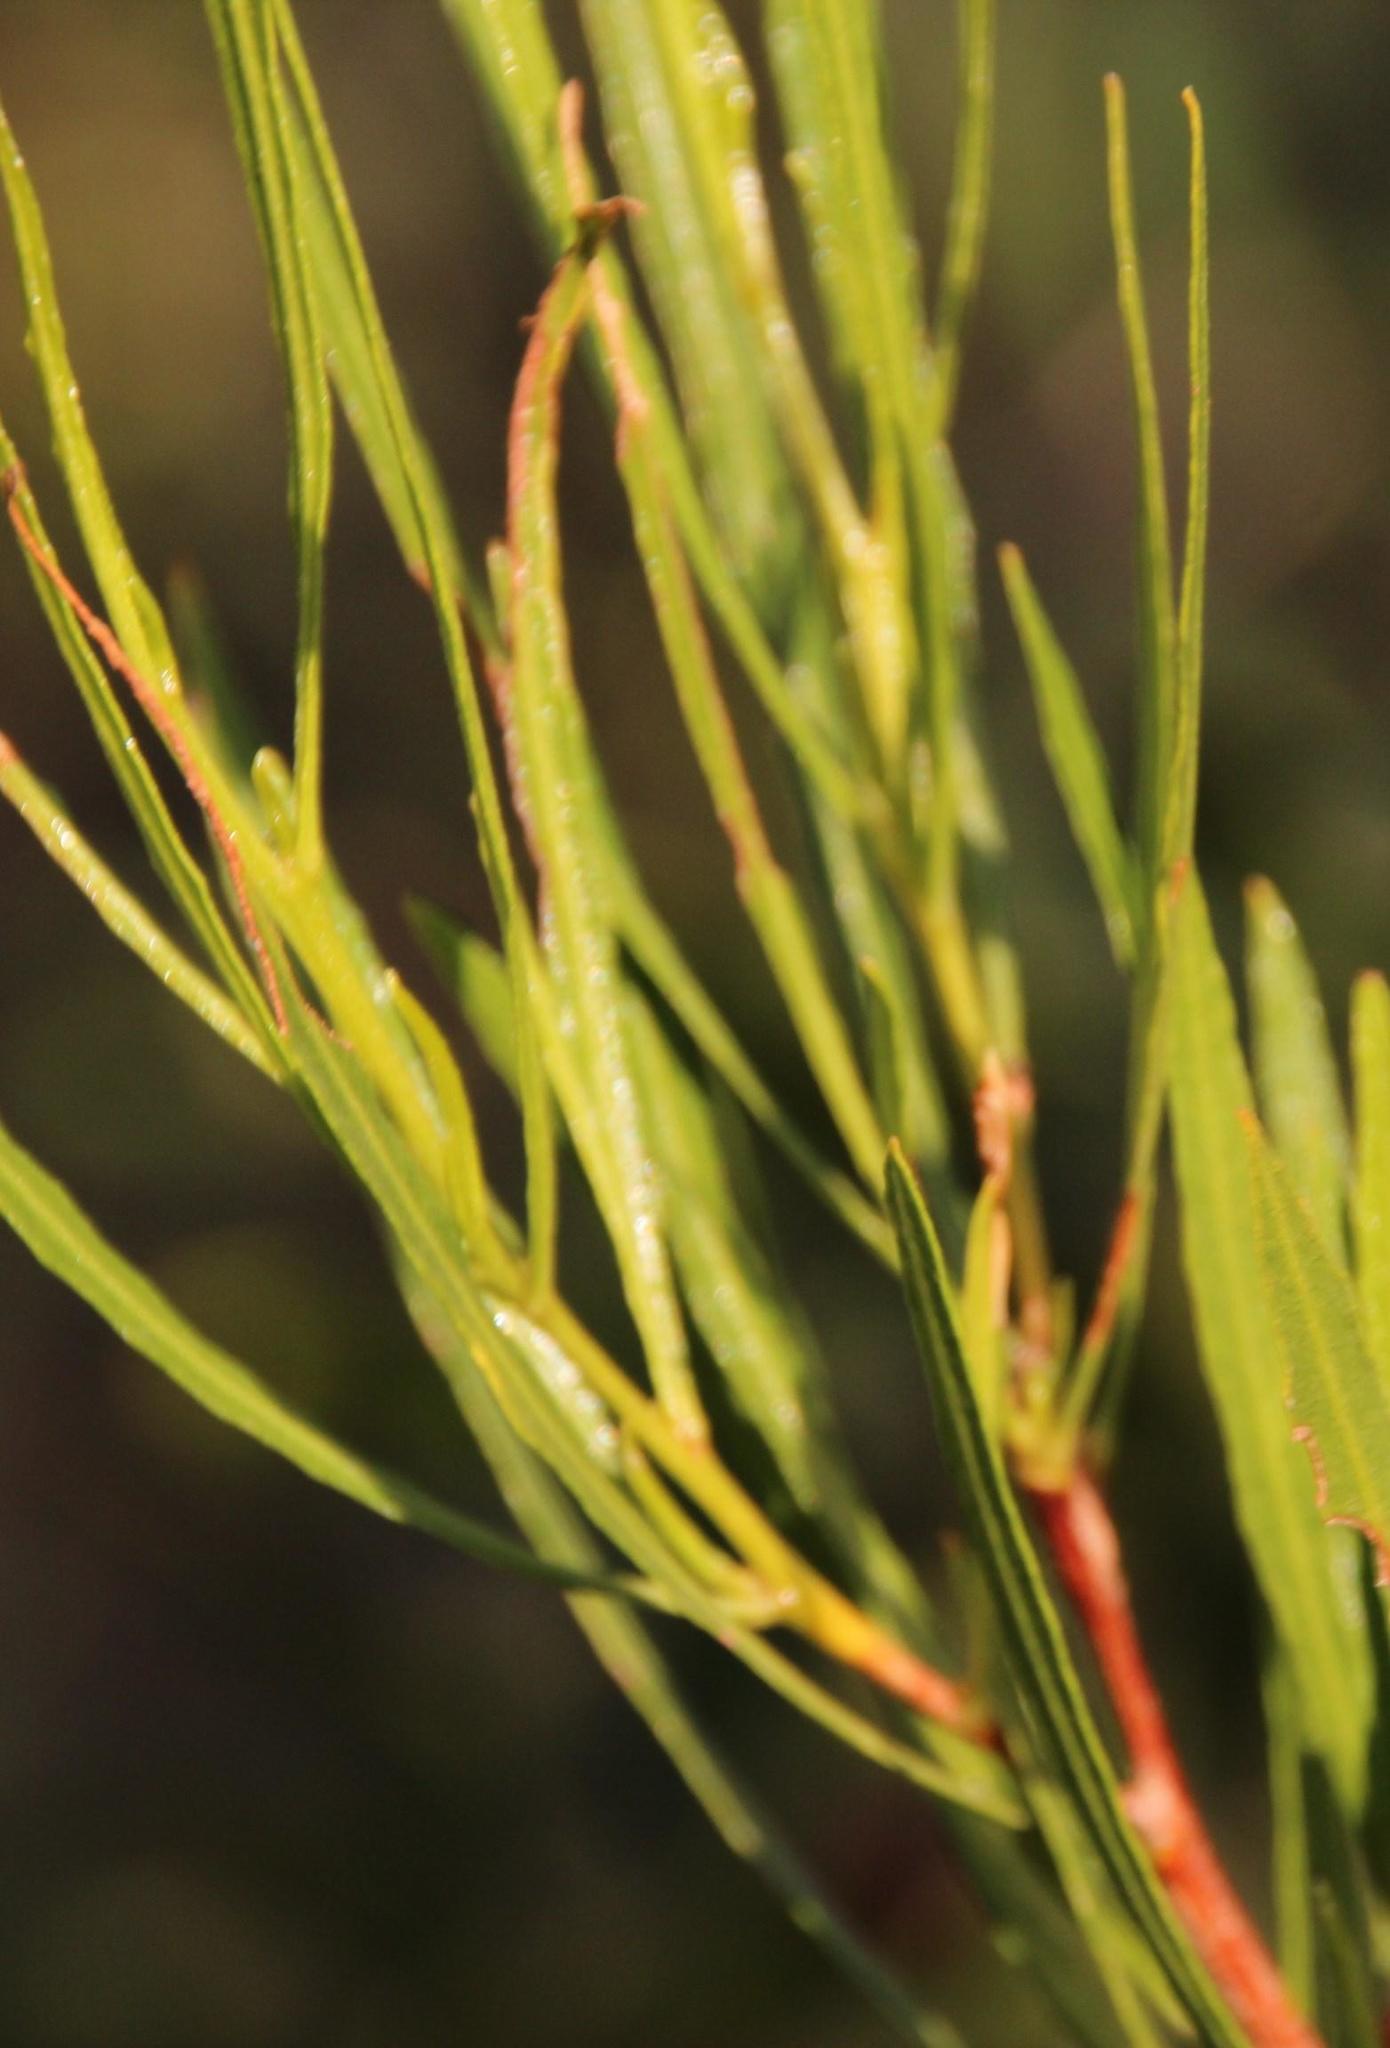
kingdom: Plantae
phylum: Tracheophyta
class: Magnoliopsida
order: Sapindales
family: Sapindaceae
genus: Dodonaea
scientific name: Dodonaea viscosa
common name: Hopbush
